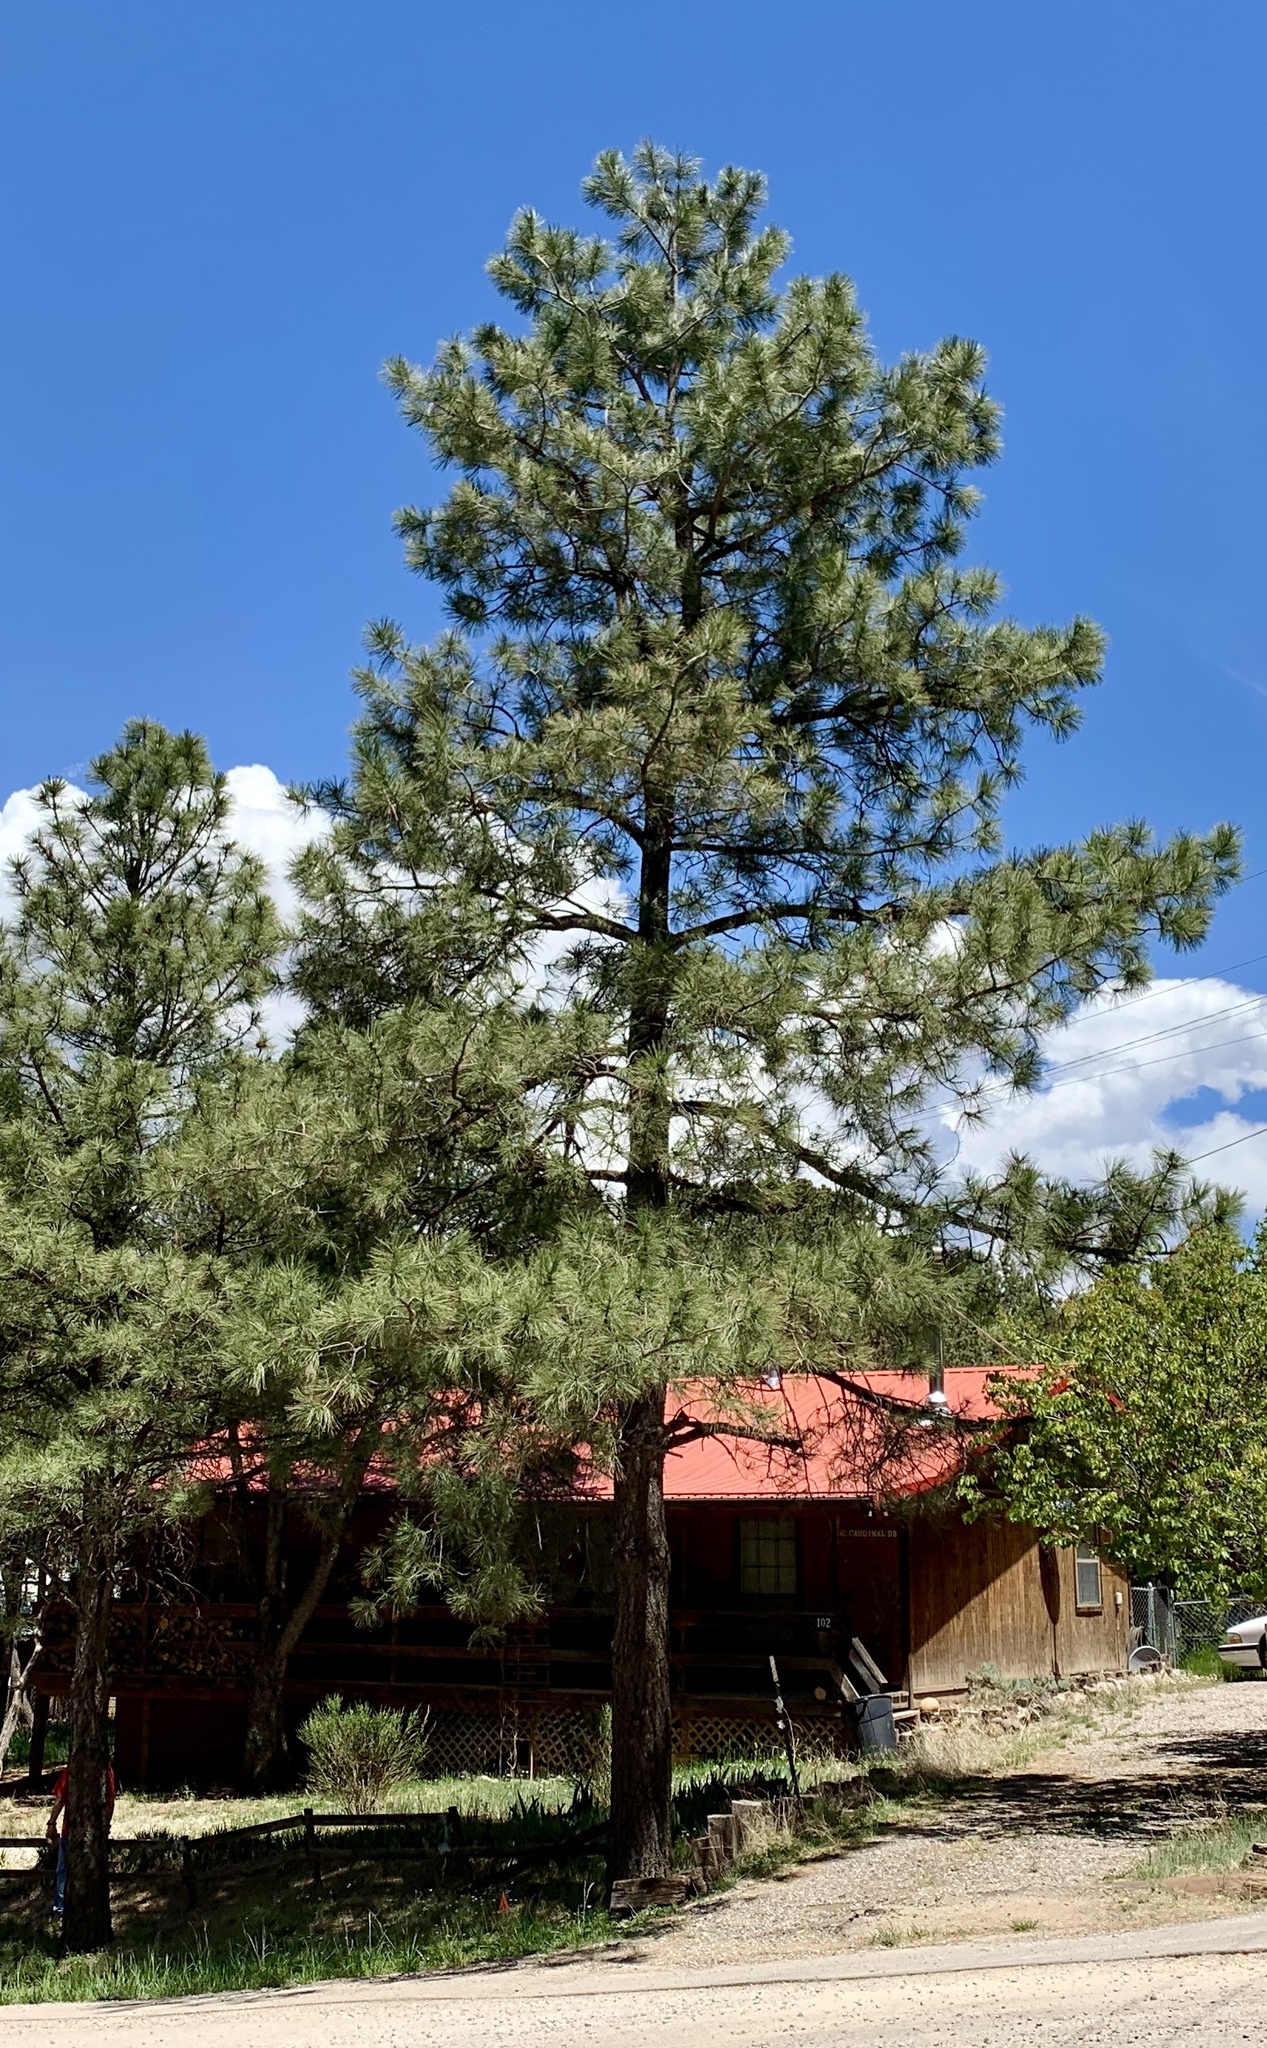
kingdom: Plantae
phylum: Tracheophyta
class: Pinopsida
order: Pinales
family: Pinaceae
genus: Pinus
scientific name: Pinus ponderosa
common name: Western yellow-pine
